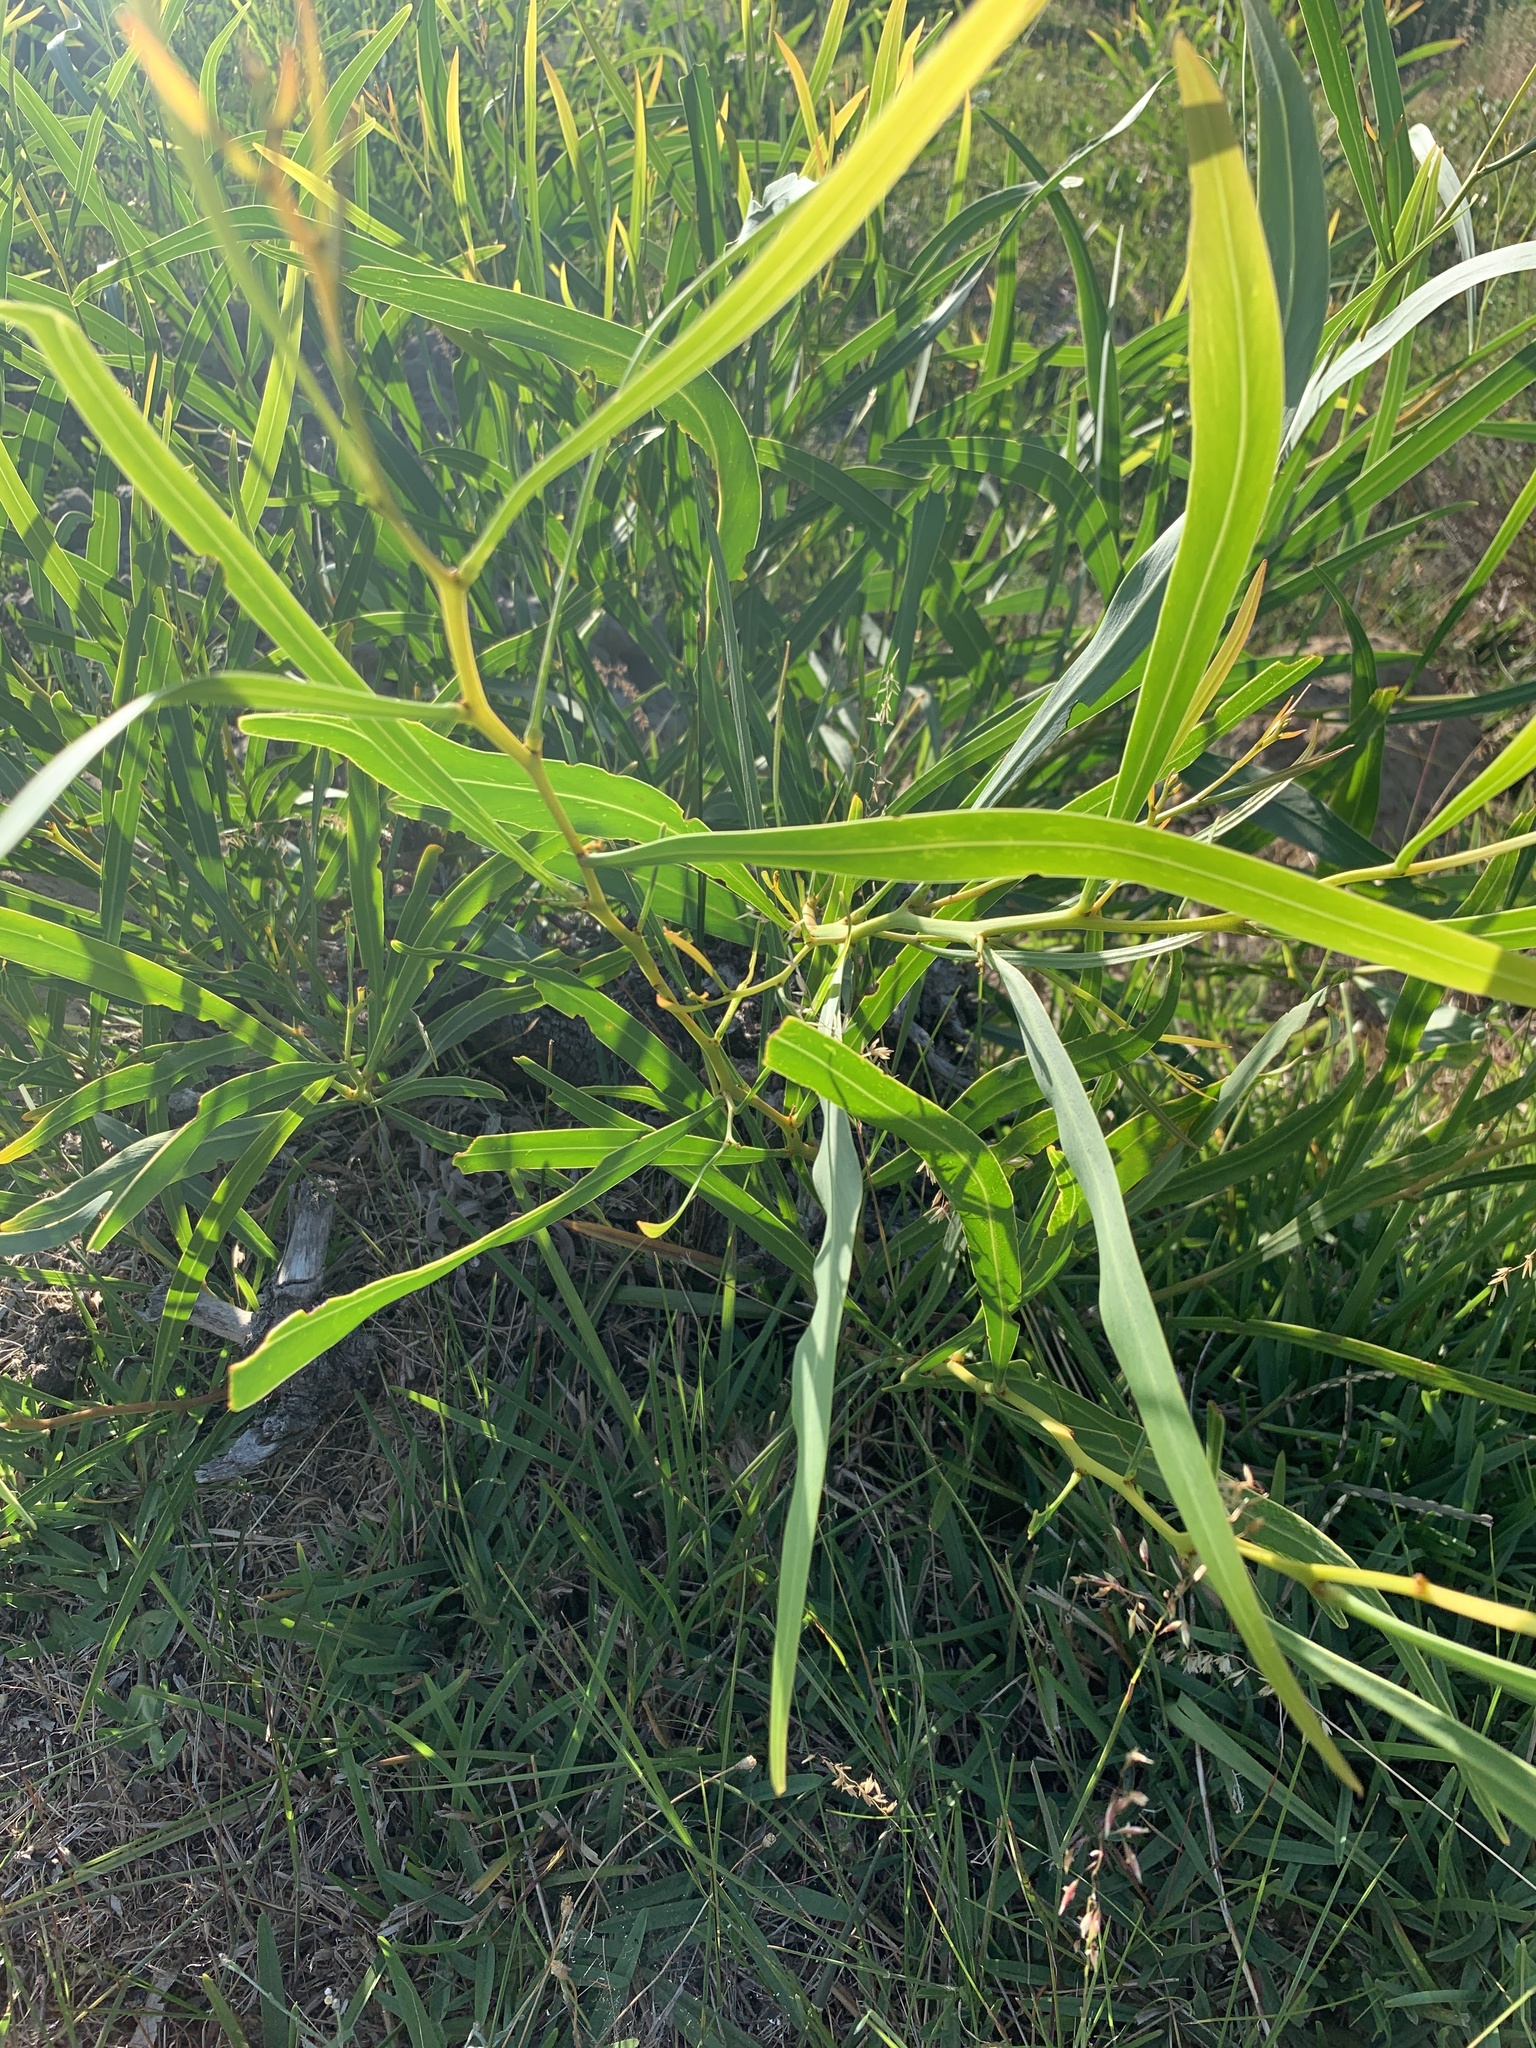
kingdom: Plantae
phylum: Tracheophyta
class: Magnoliopsida
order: Fabales
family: Fabaceae
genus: Acacia
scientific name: Acacia saligna
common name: Orange wattle
